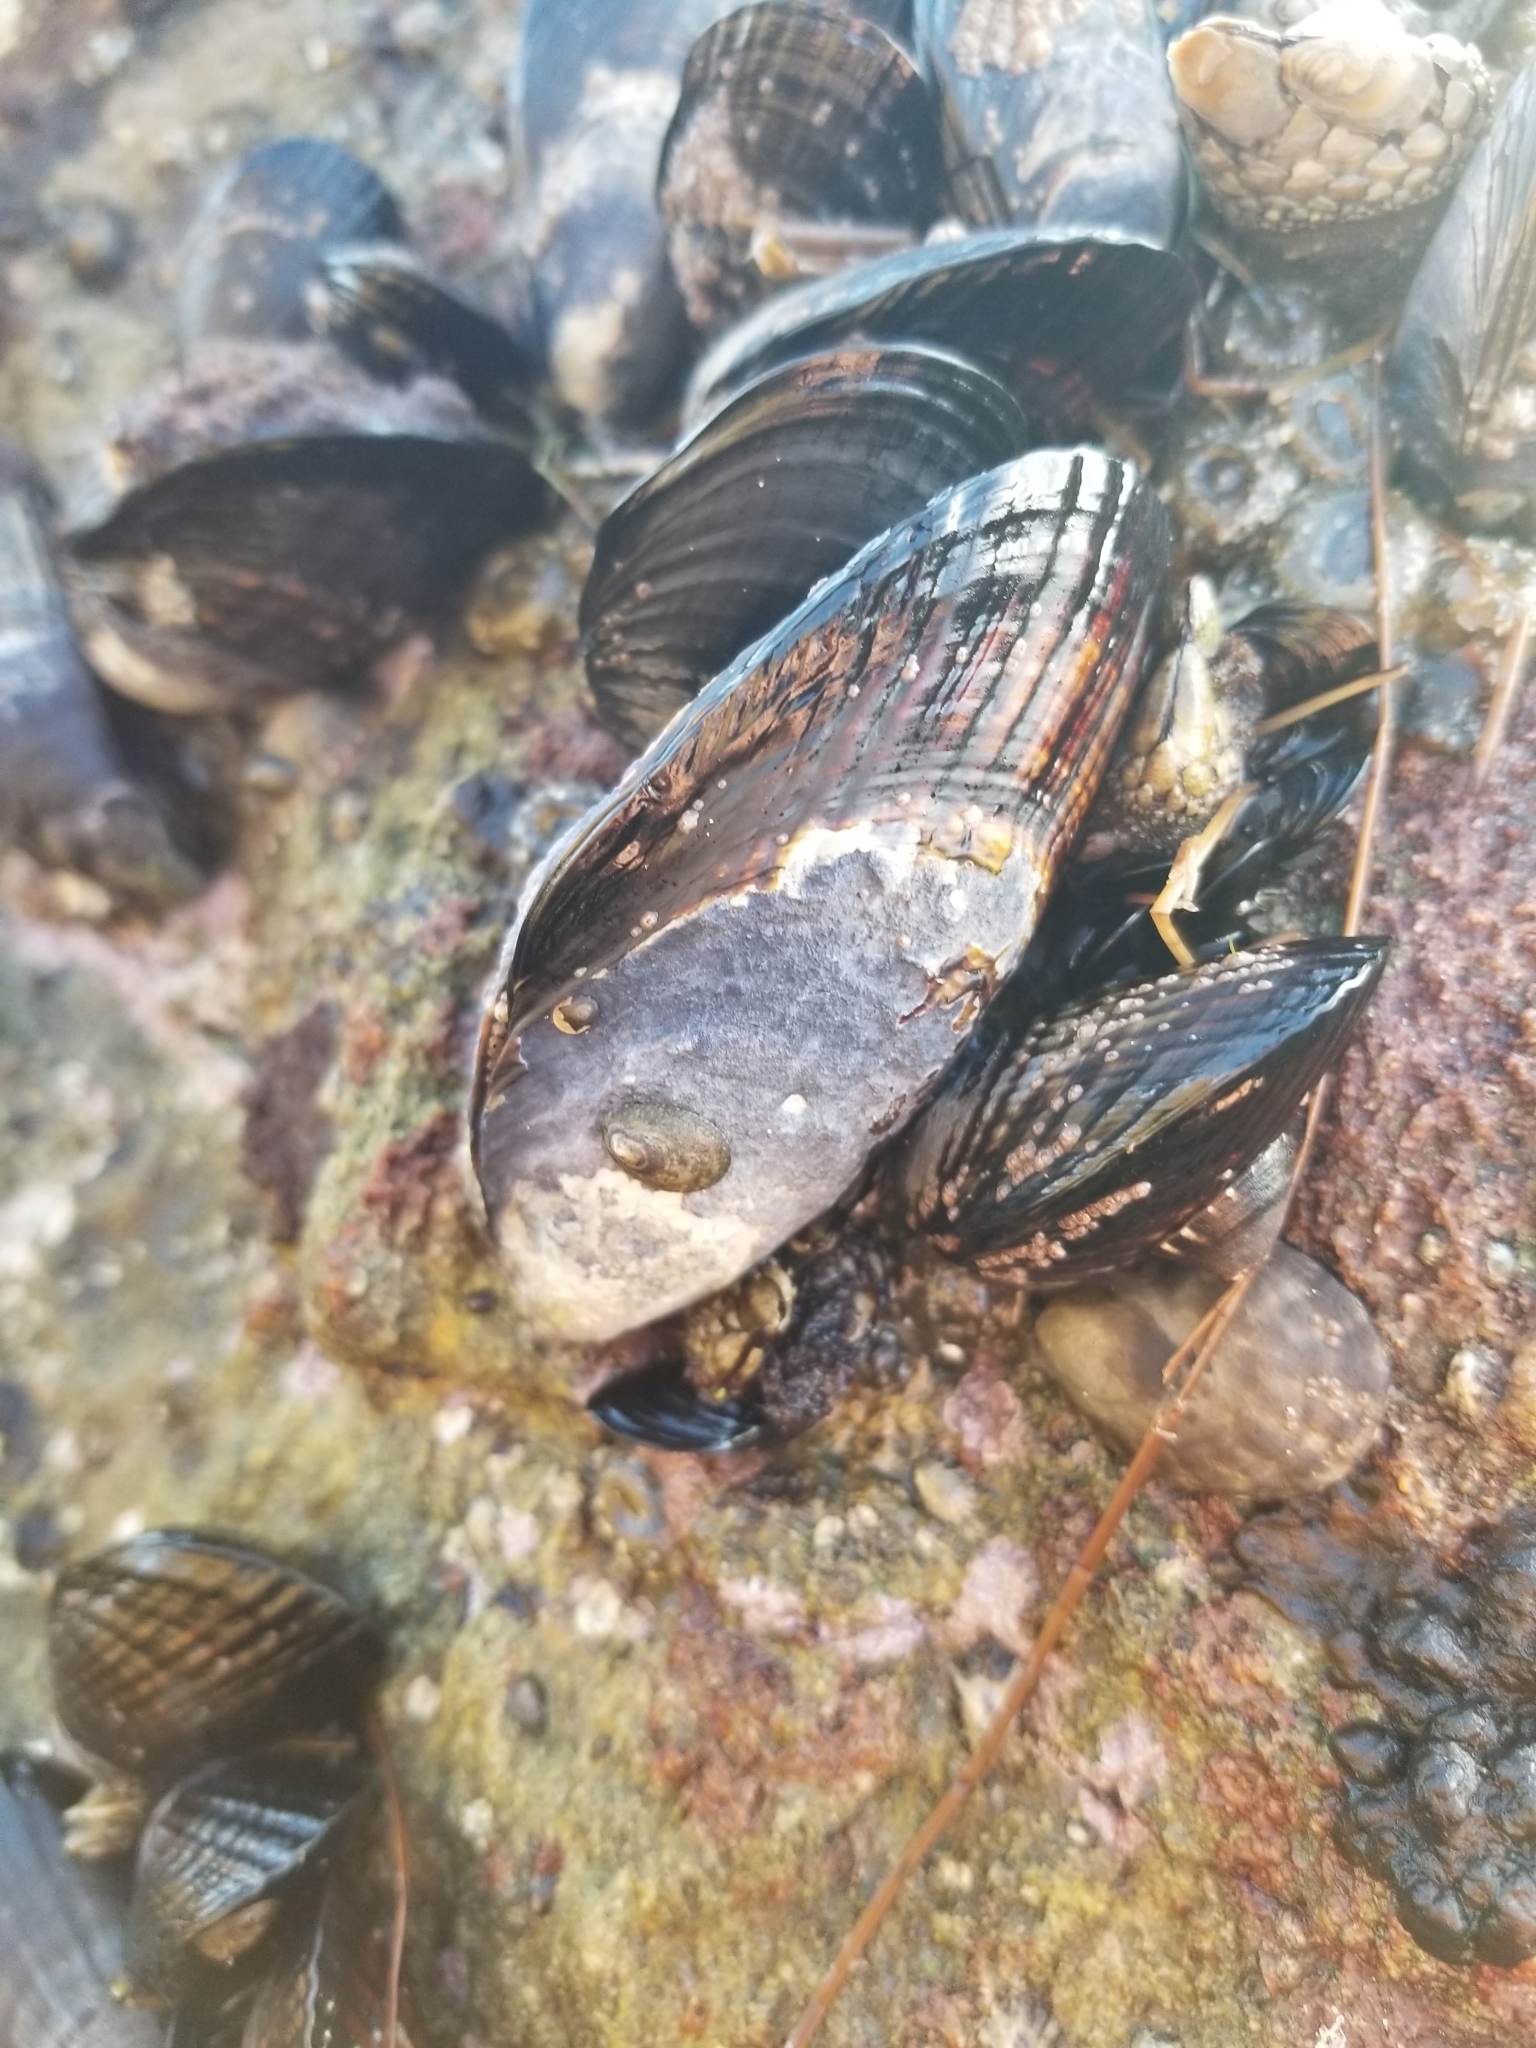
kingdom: Animalia
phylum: Mollusca
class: Bivalvia
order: Mytilida
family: Mytilidae
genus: Mytilus
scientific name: Mytilus californianus
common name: California mussel
